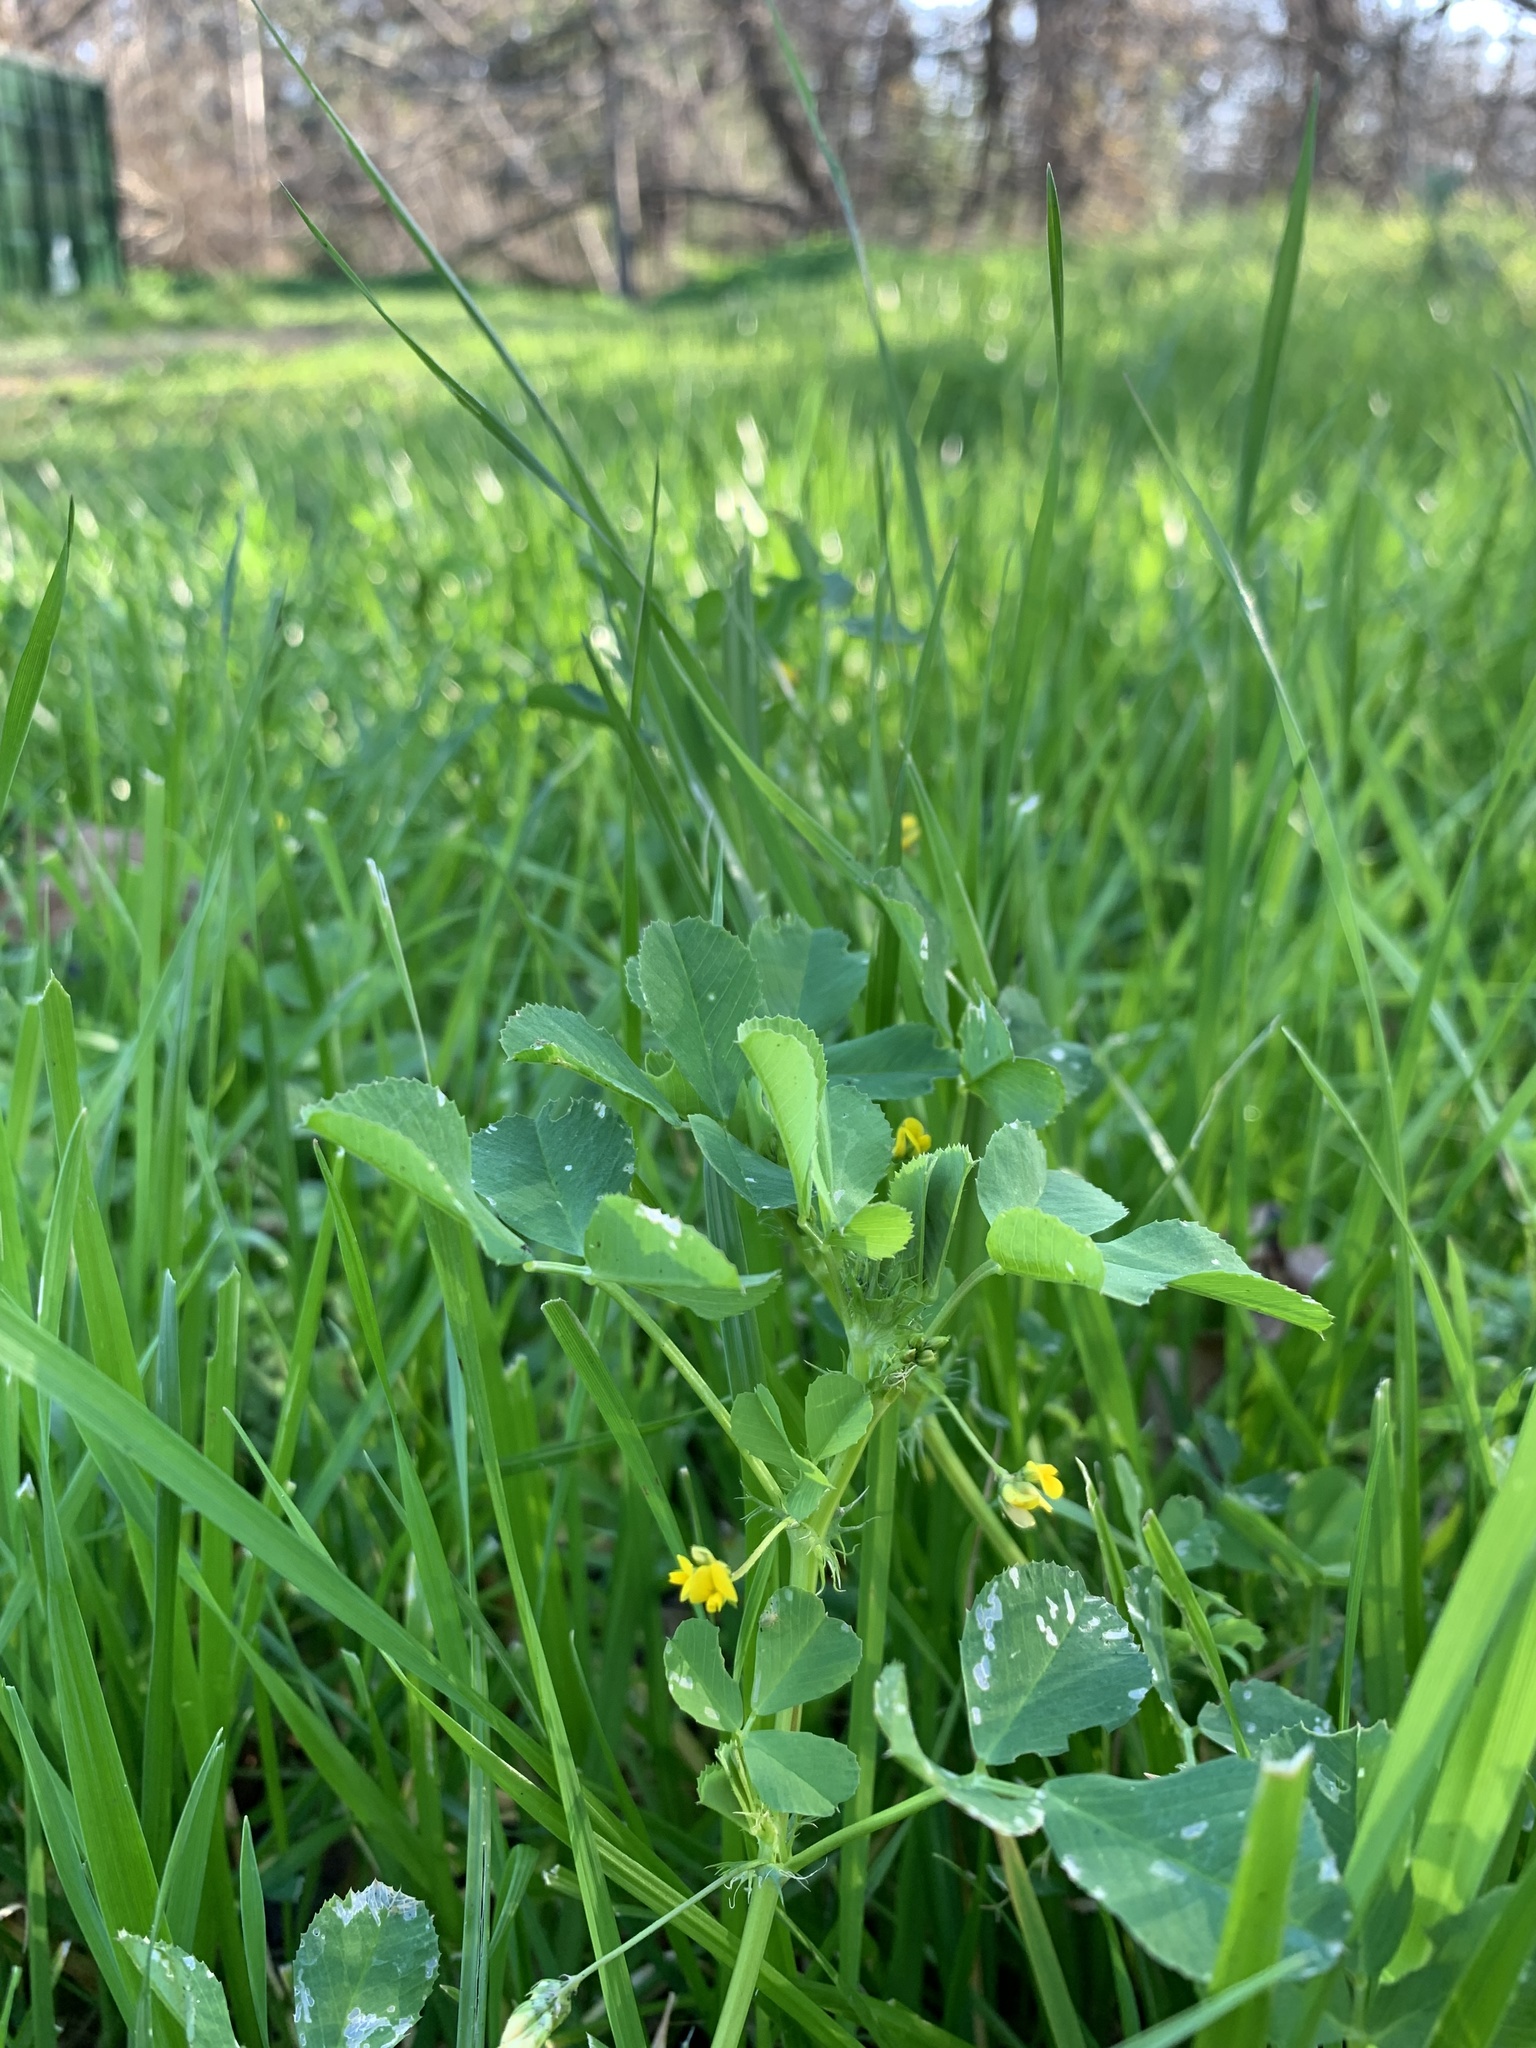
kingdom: Plantae
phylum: Tracheophyta
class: Magnoliopsida
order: Fabales
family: Fabaceae
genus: Medicago
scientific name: Medicago polymorpha
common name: Burclover
